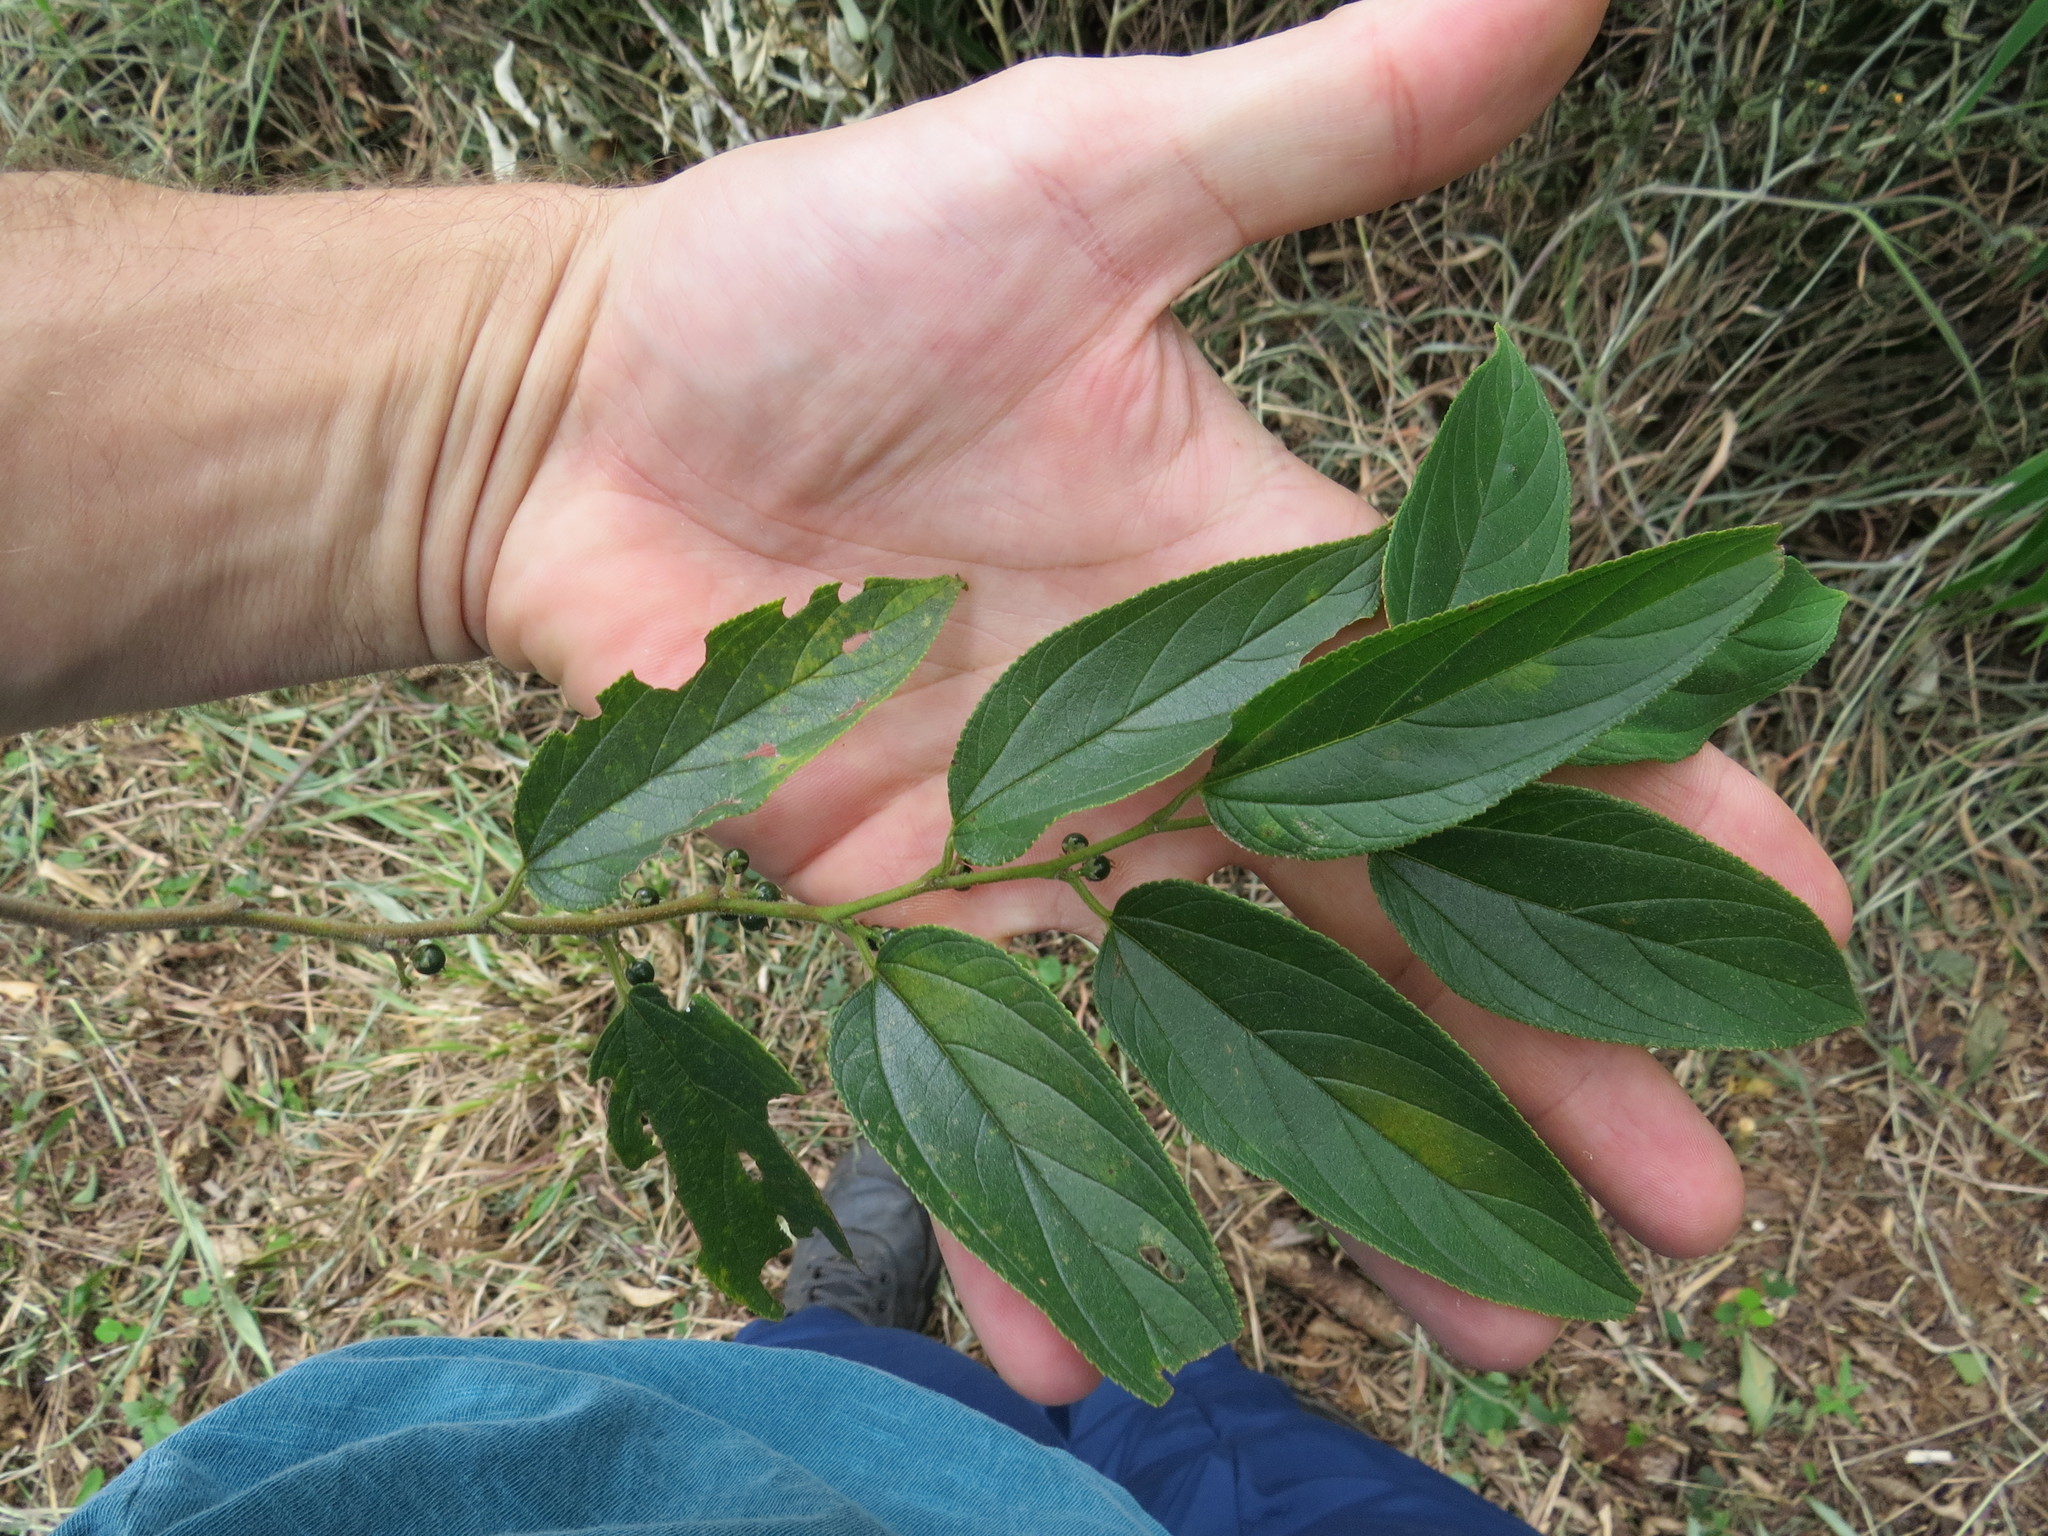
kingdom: Plantae
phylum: Tracheophyta
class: Magnoliopsida
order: Rosales
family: Cannabaceae
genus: Trema
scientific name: Trema micranthum
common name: Jamaican nettletree
